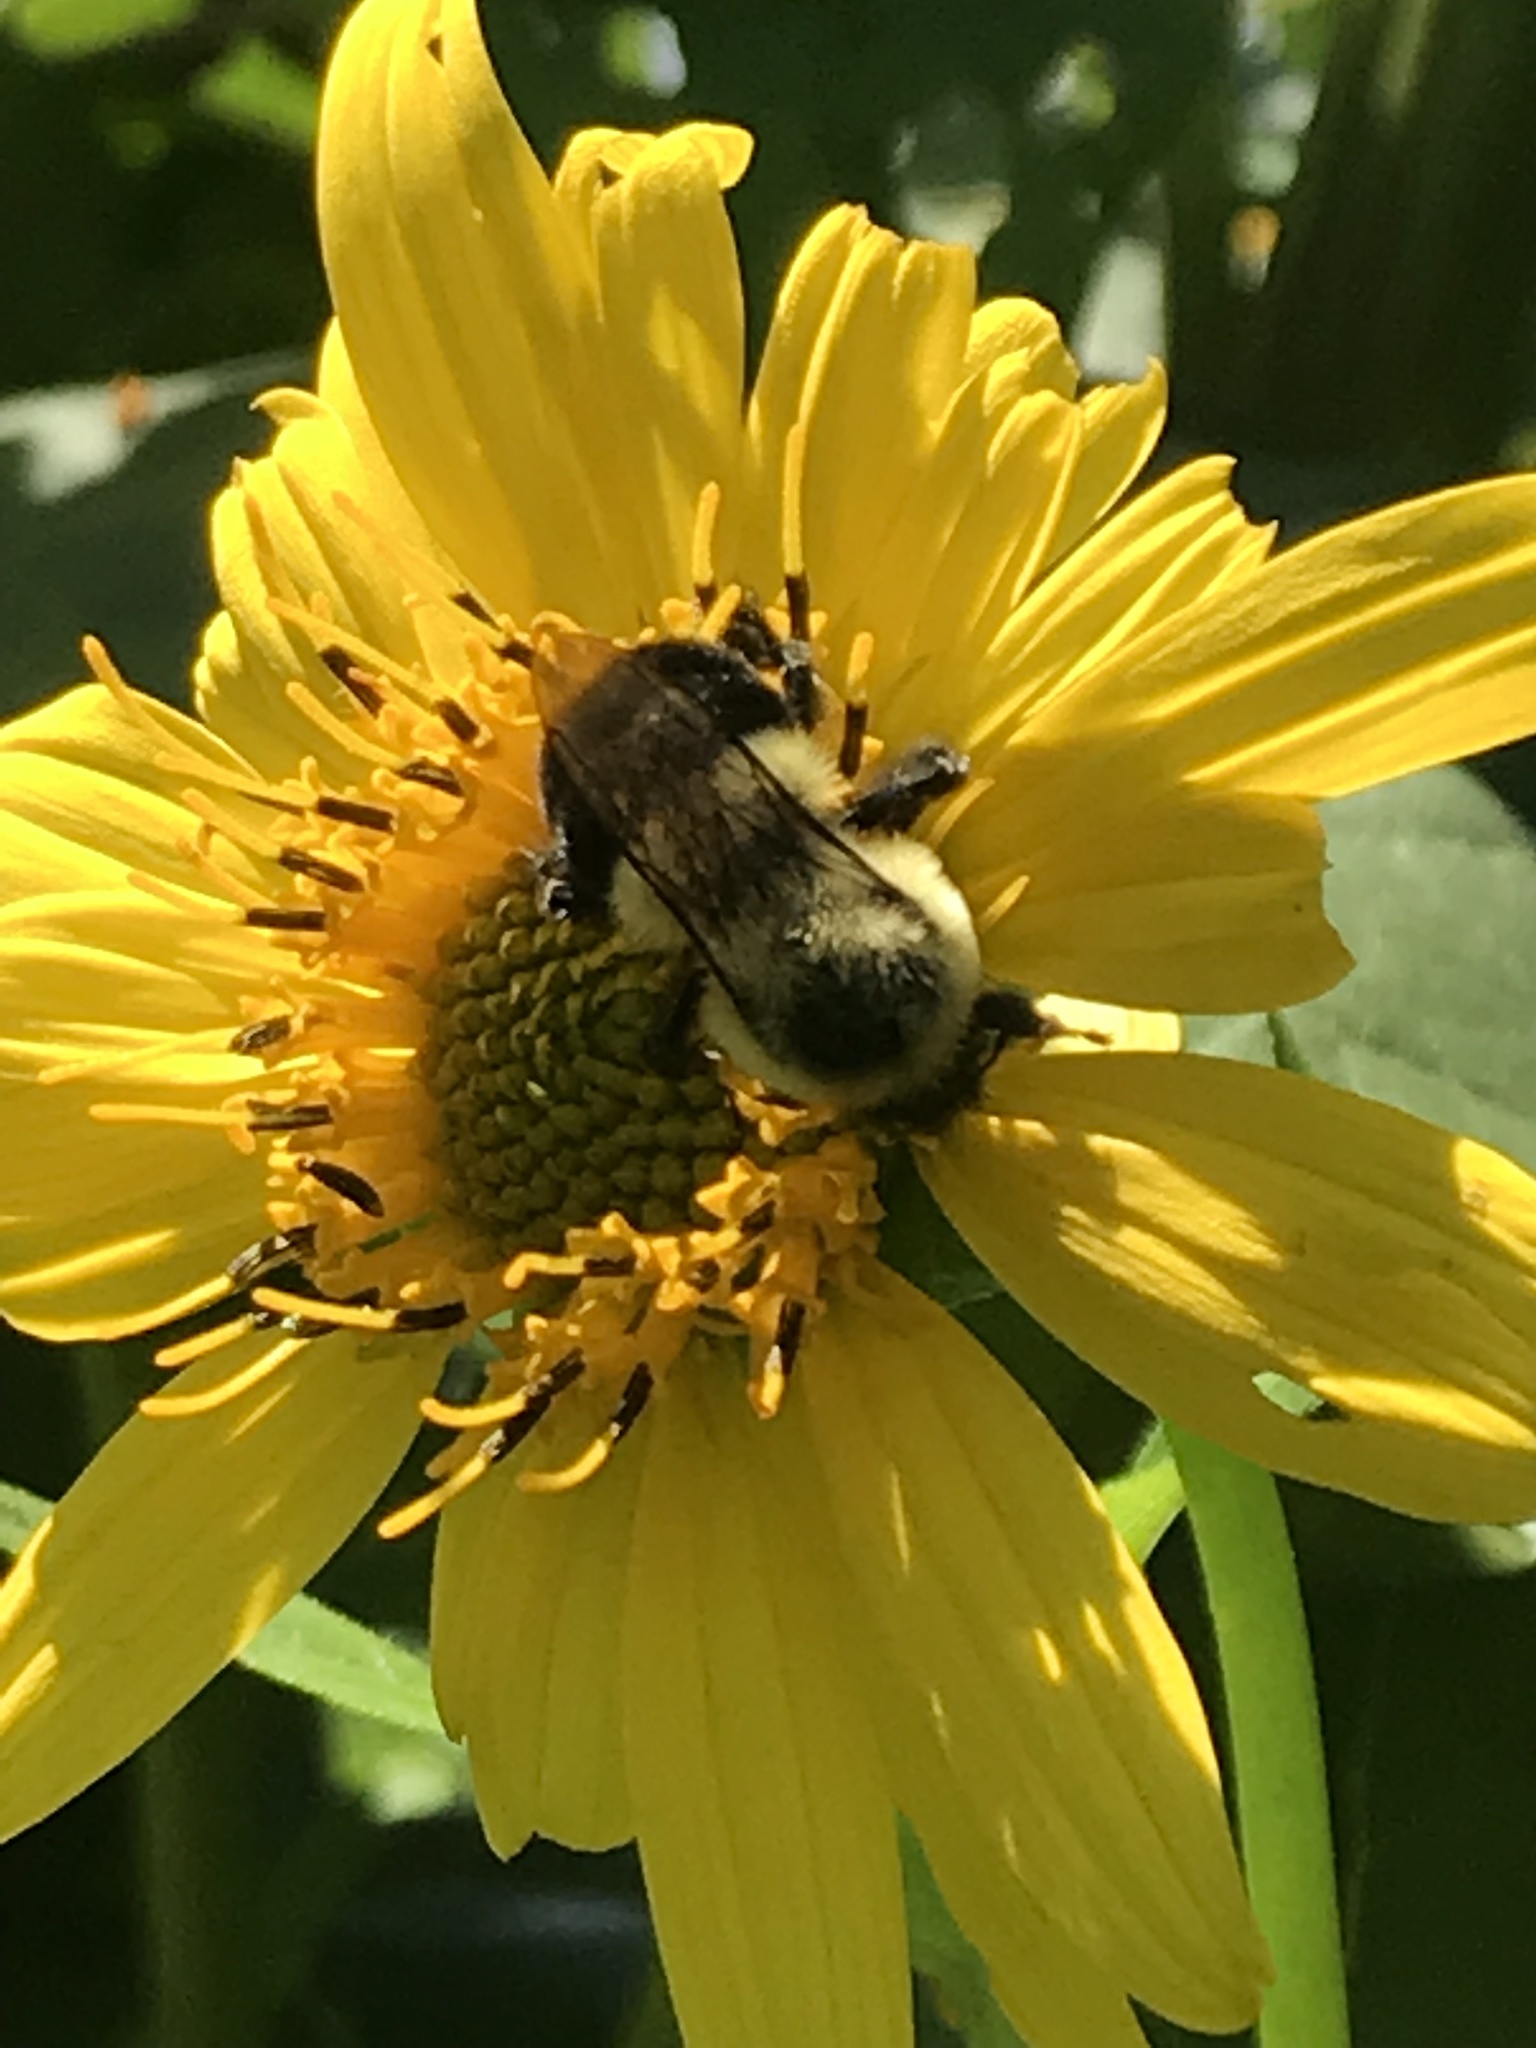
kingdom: Animalia
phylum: Arthropoda
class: Insecta
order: Hymenoptera
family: Apidae
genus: Bombus
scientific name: Bombus impatiens
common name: Common eastern bumble bee
